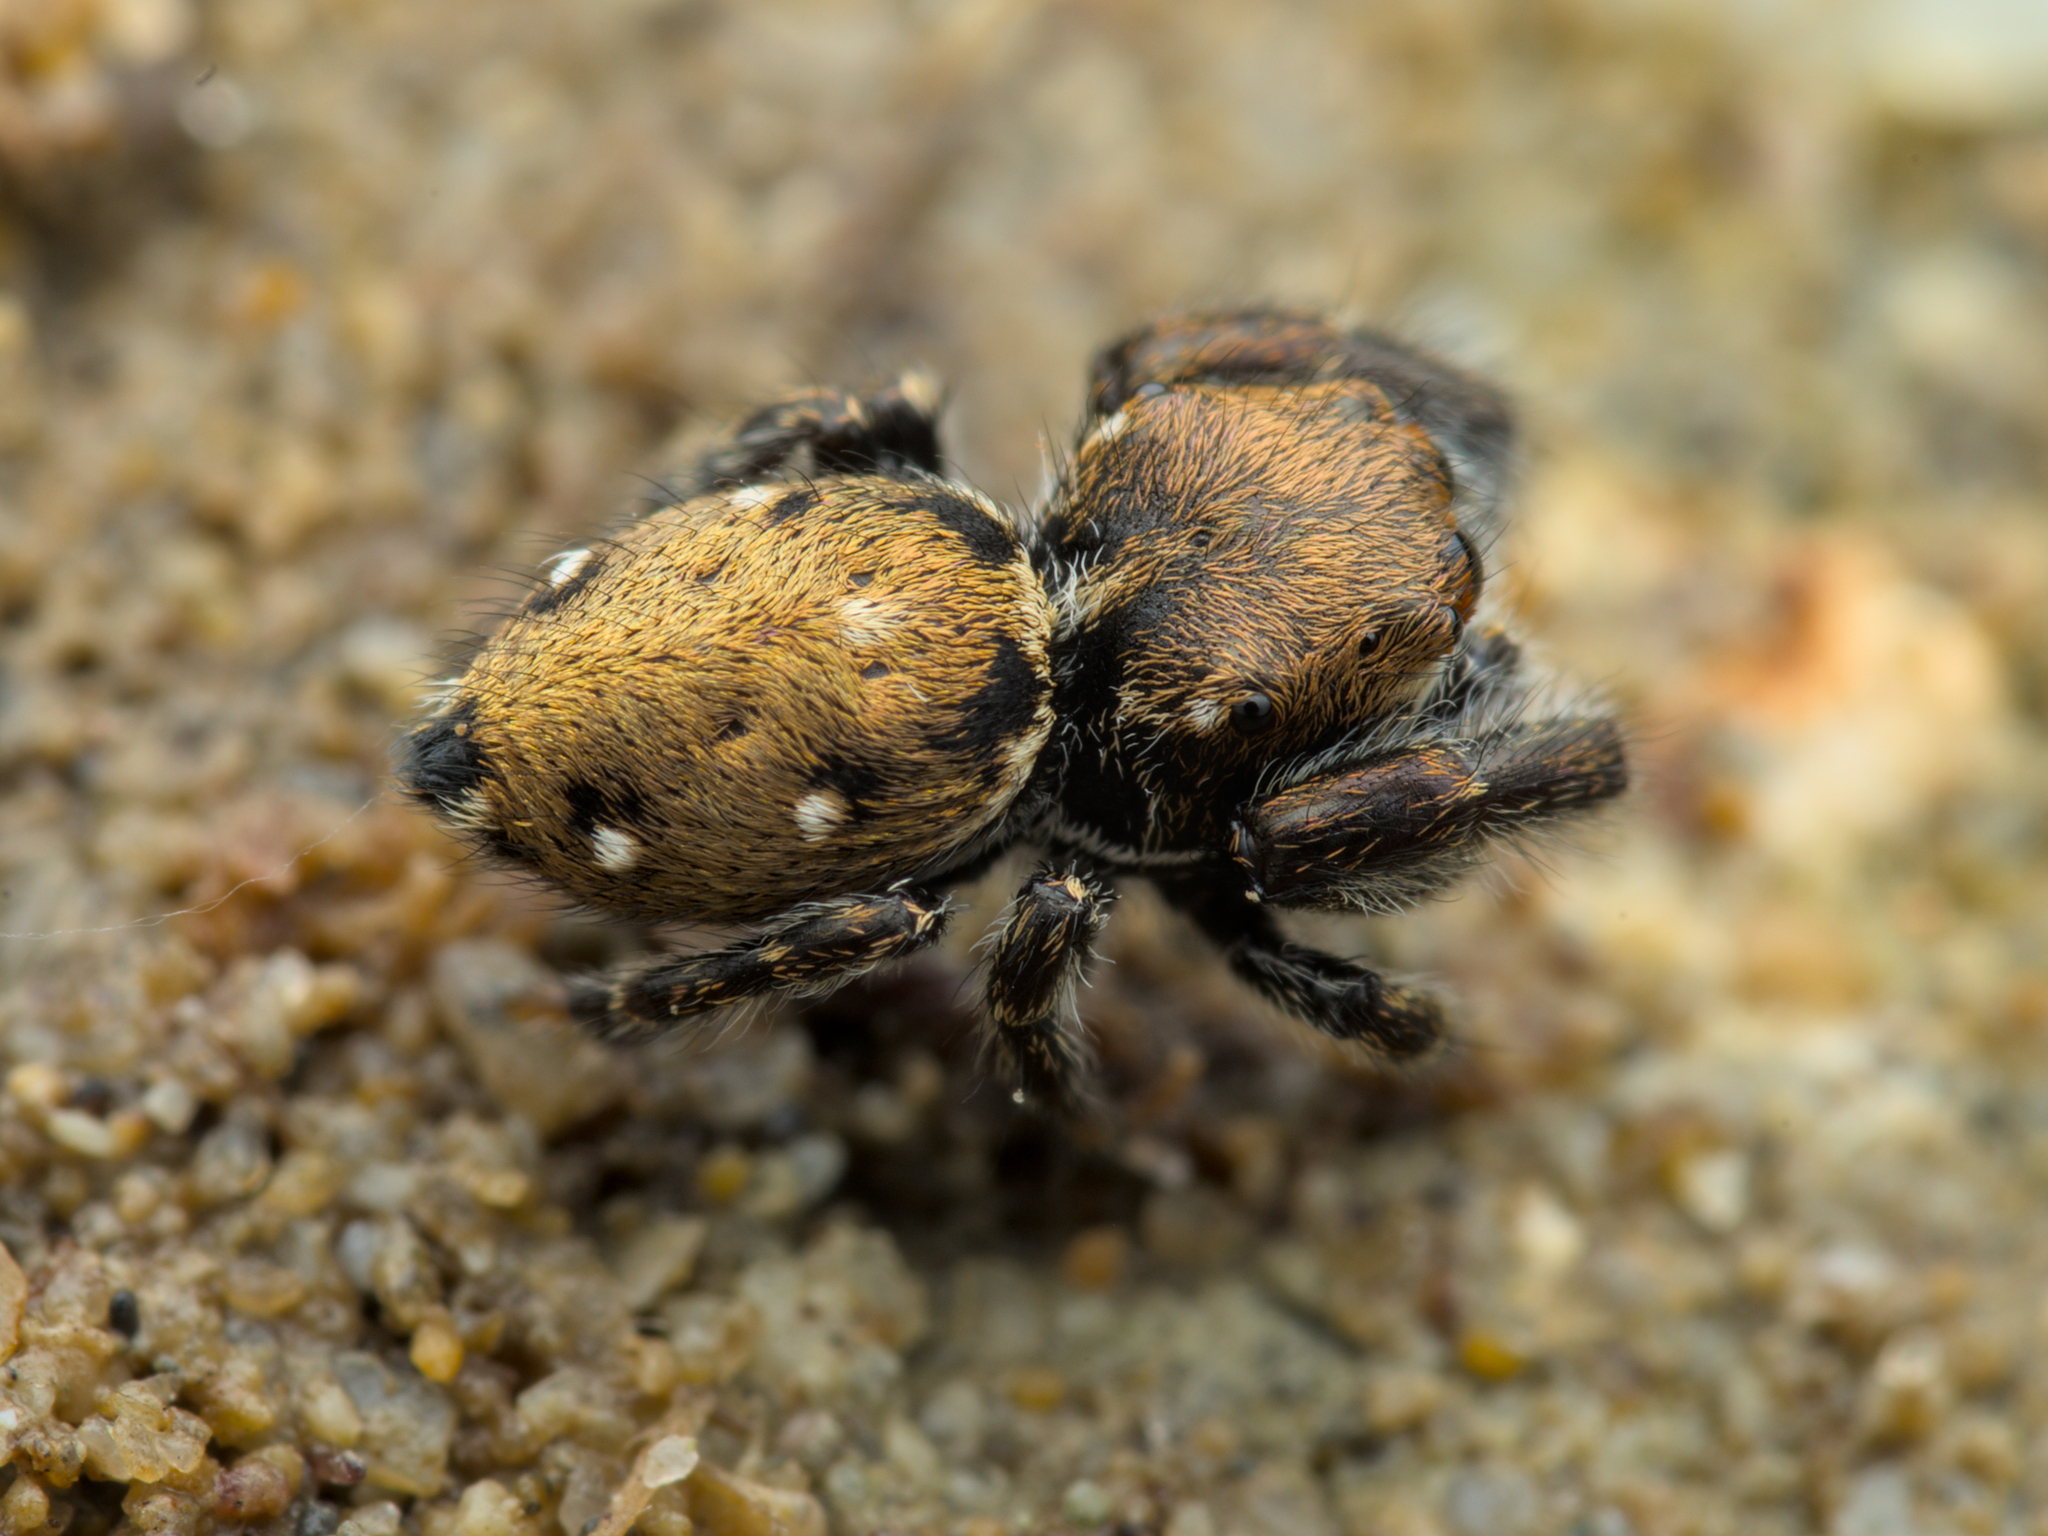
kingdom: Animalia
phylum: Arthropoda
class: Arachnida
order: Araneae
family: Salticidae
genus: Bianor
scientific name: Bianor albobimaculatus
